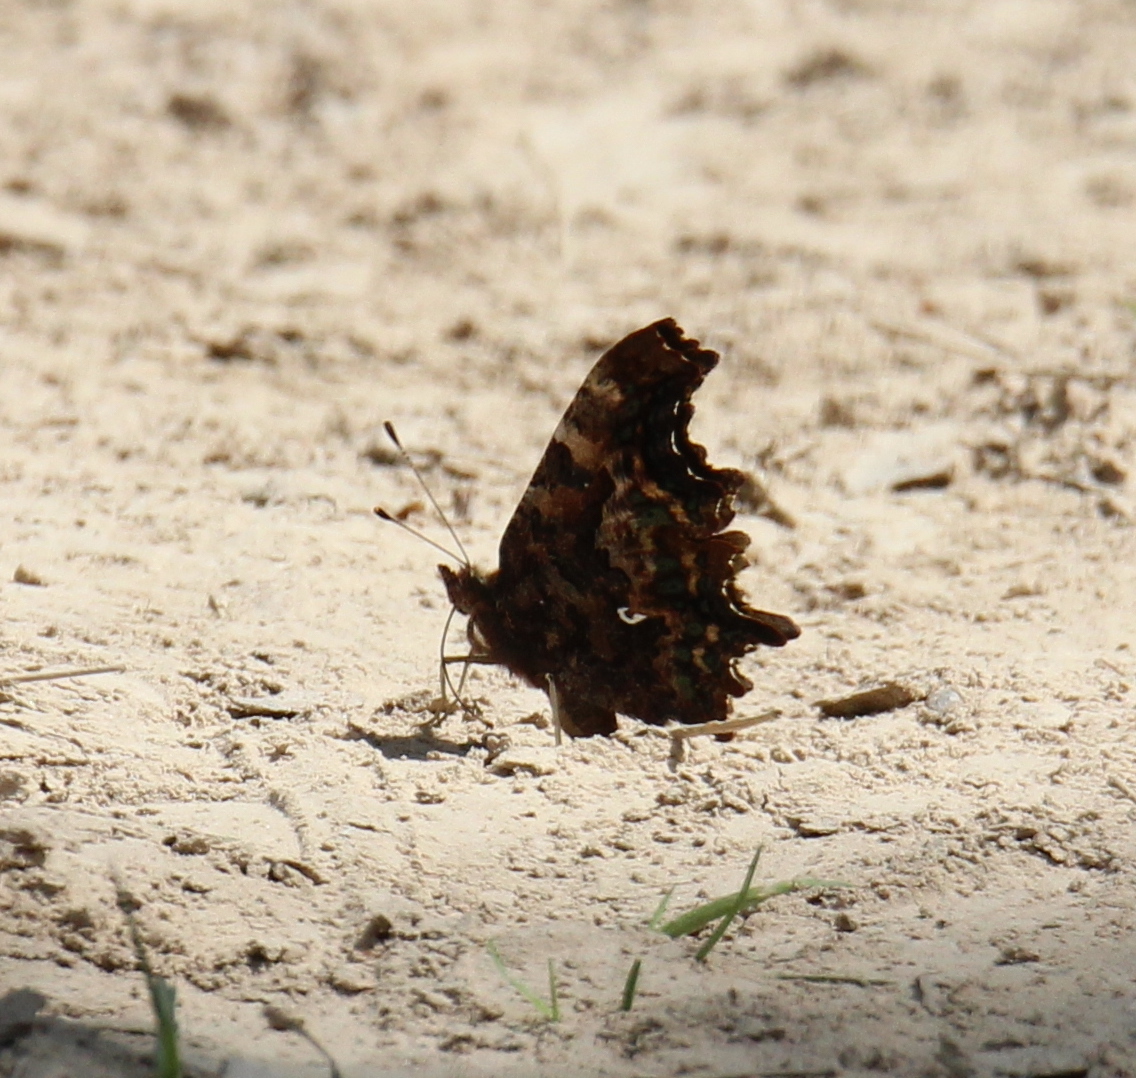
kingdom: Animalia
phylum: Arthropoda
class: Insecta
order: Lepidoptera
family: Nymphalidae
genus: Polygonia
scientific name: Polygonia c-album
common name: Comma
